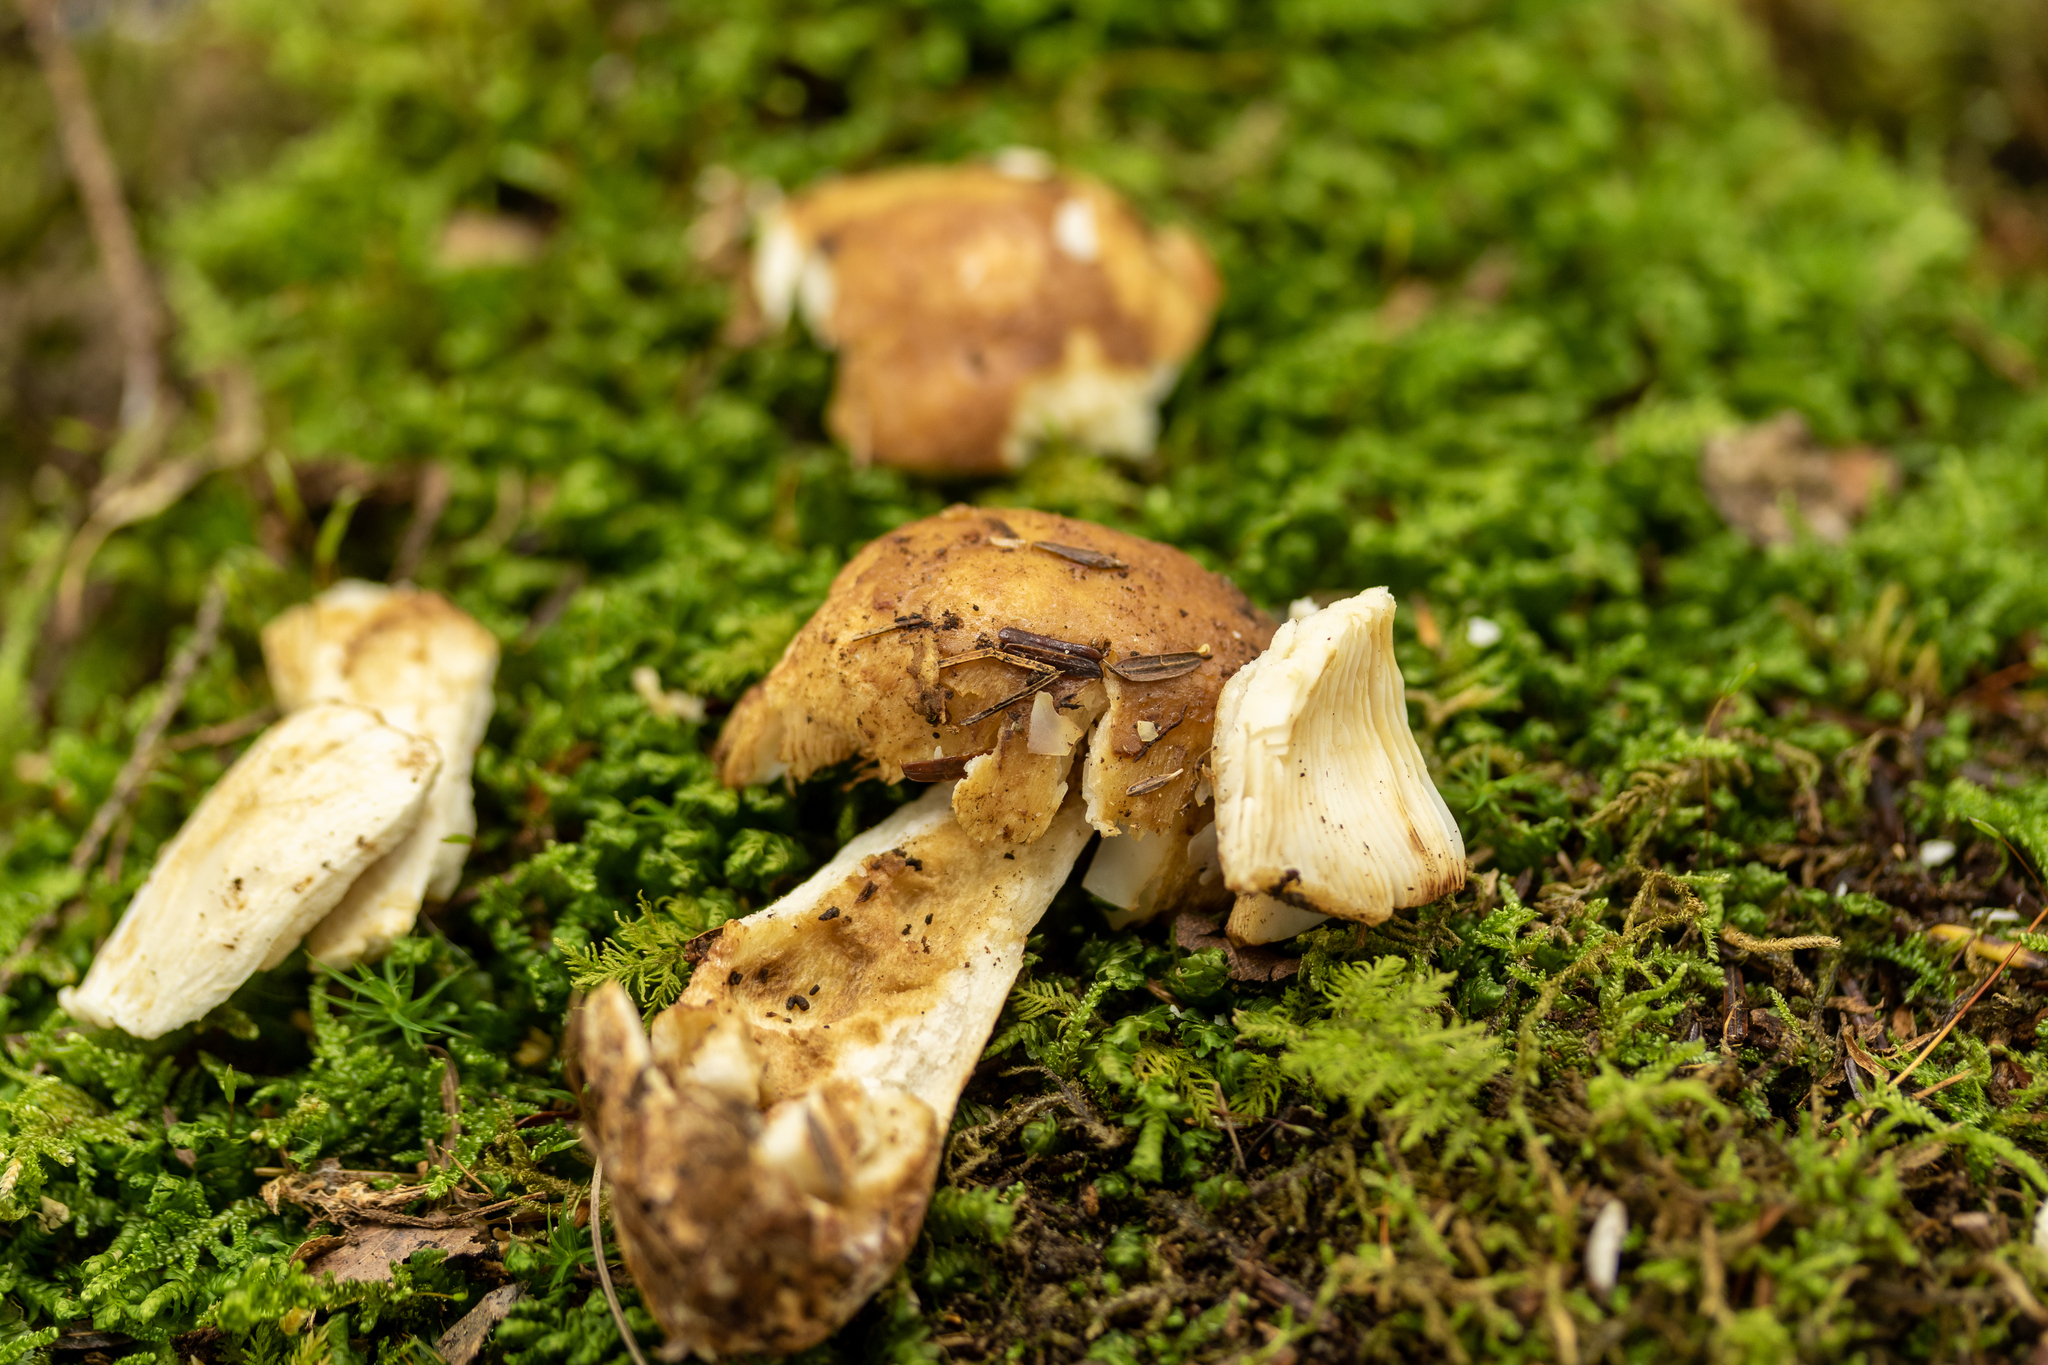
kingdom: Fungi
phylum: Basidiomycota
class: Agaricomycetes
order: Russulales
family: Russulaceae
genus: Russula
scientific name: Russula granulata
